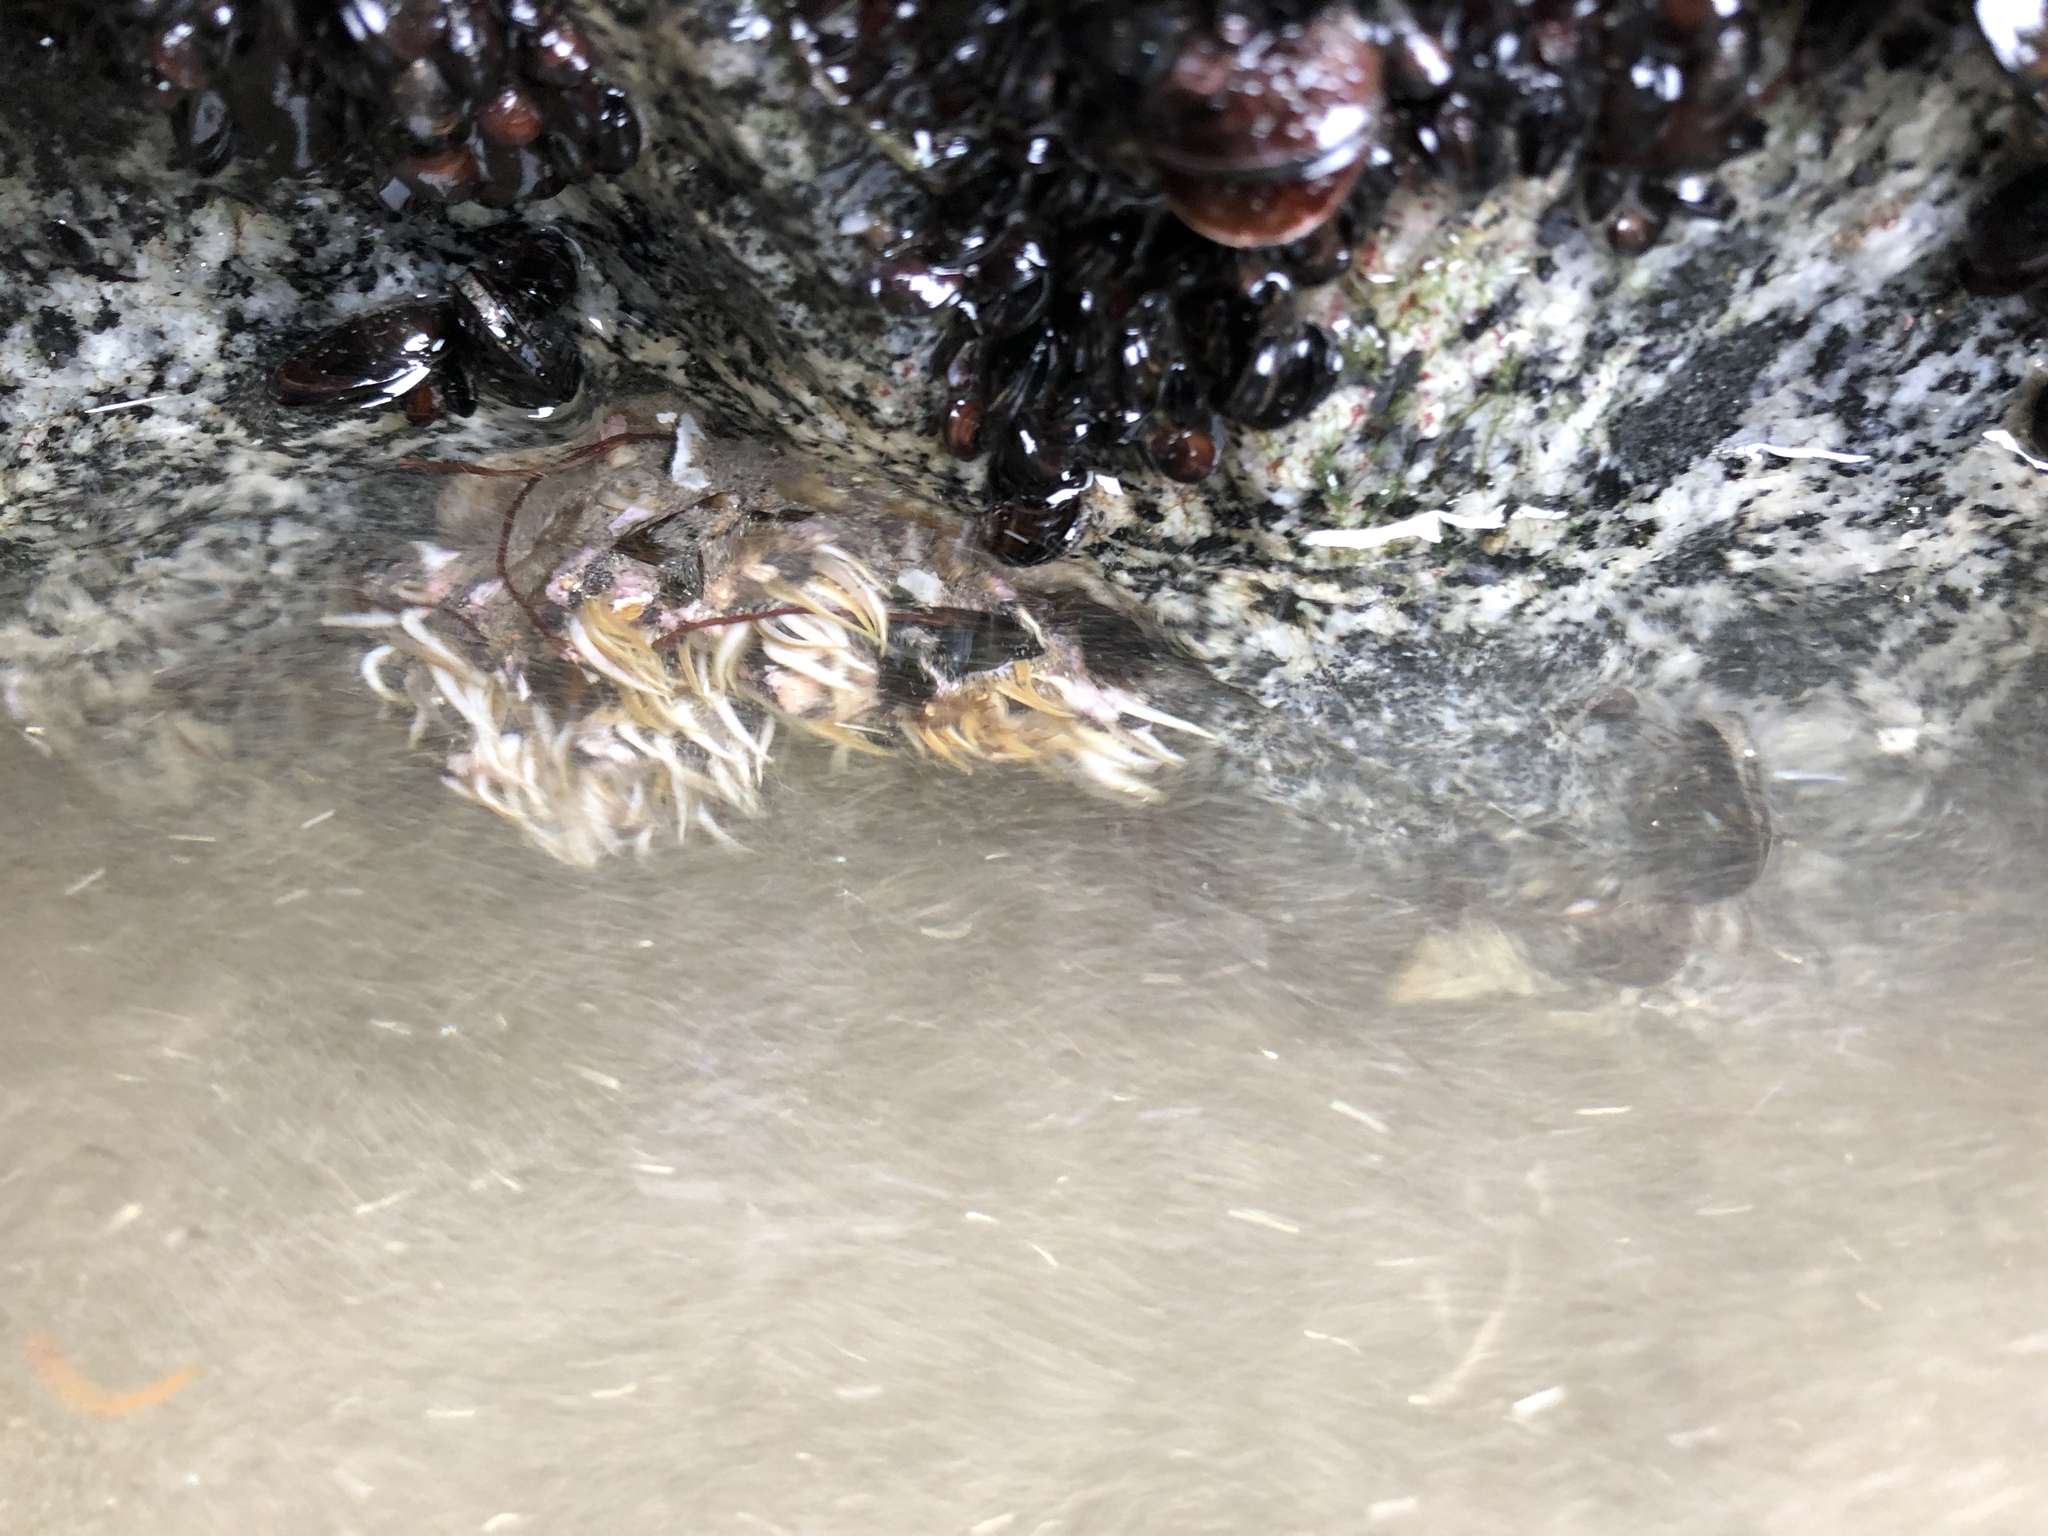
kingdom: Animalia
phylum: Cnidaria
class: Anthozoa
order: Actiniaria
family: Actiniidae
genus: Oulactis
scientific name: Oulactis concinnata
